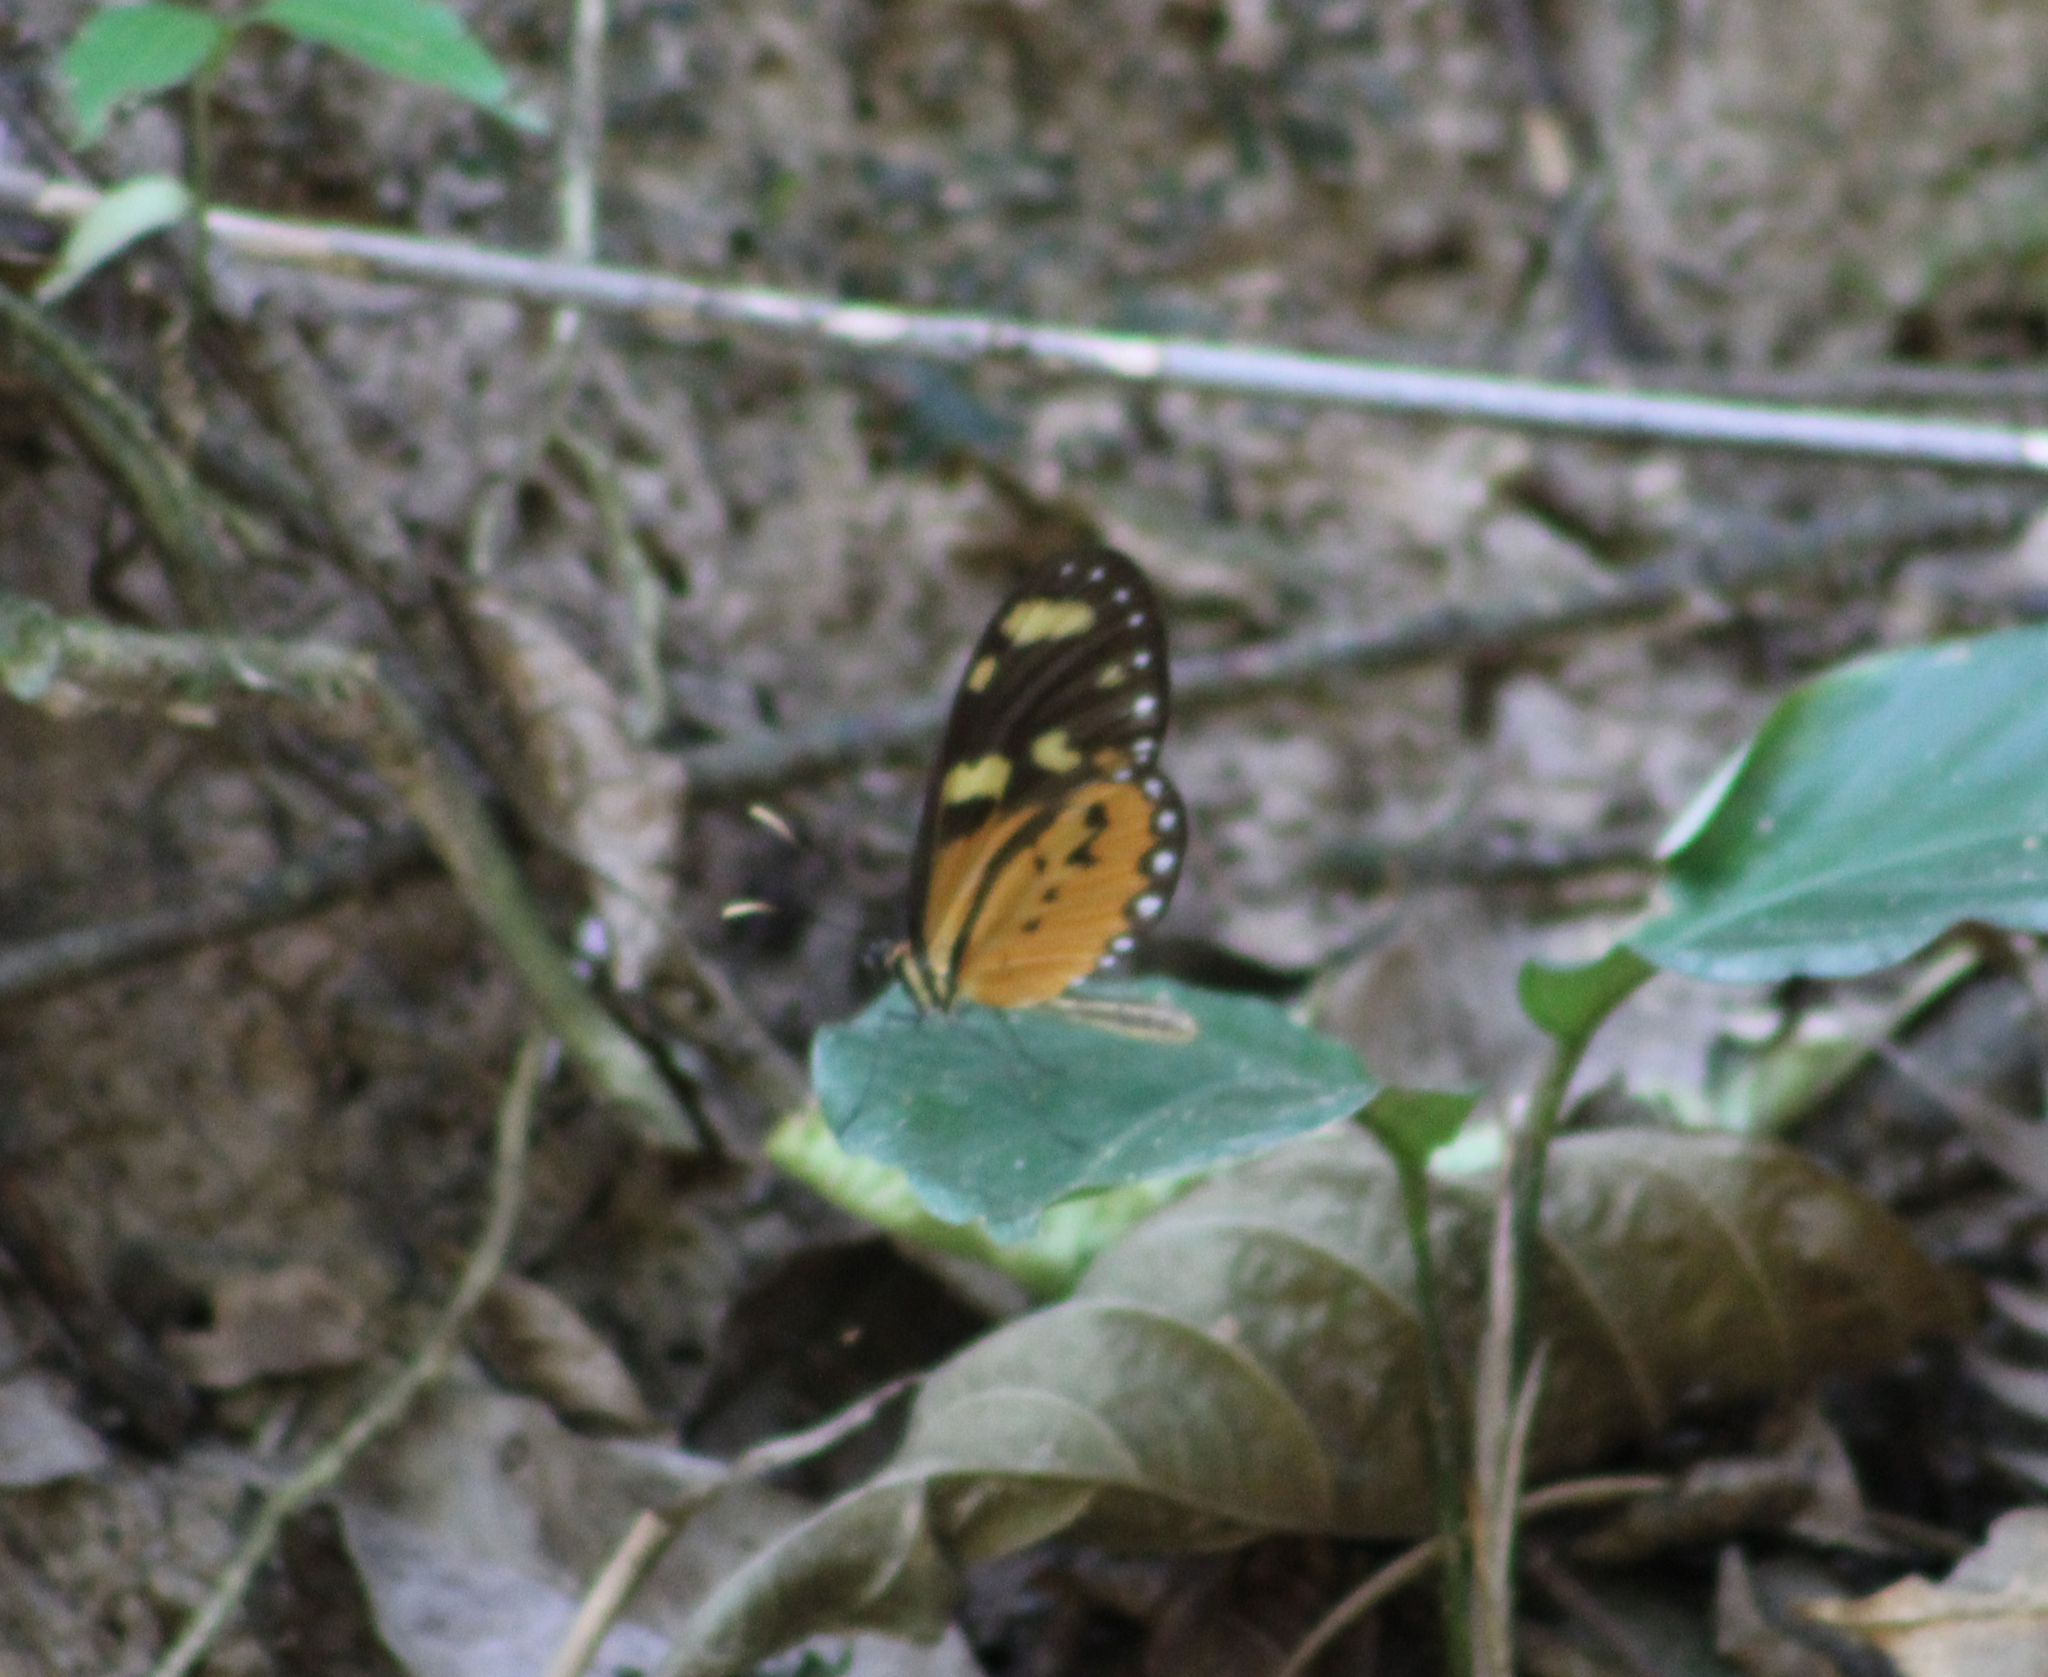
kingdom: Animalia
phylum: Arthropoda
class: Insecta
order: Lepidoptera
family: Nymphalidae
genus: Mechanitis
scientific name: Mechanitis lysimnia
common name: Lysimnia tigerwing
